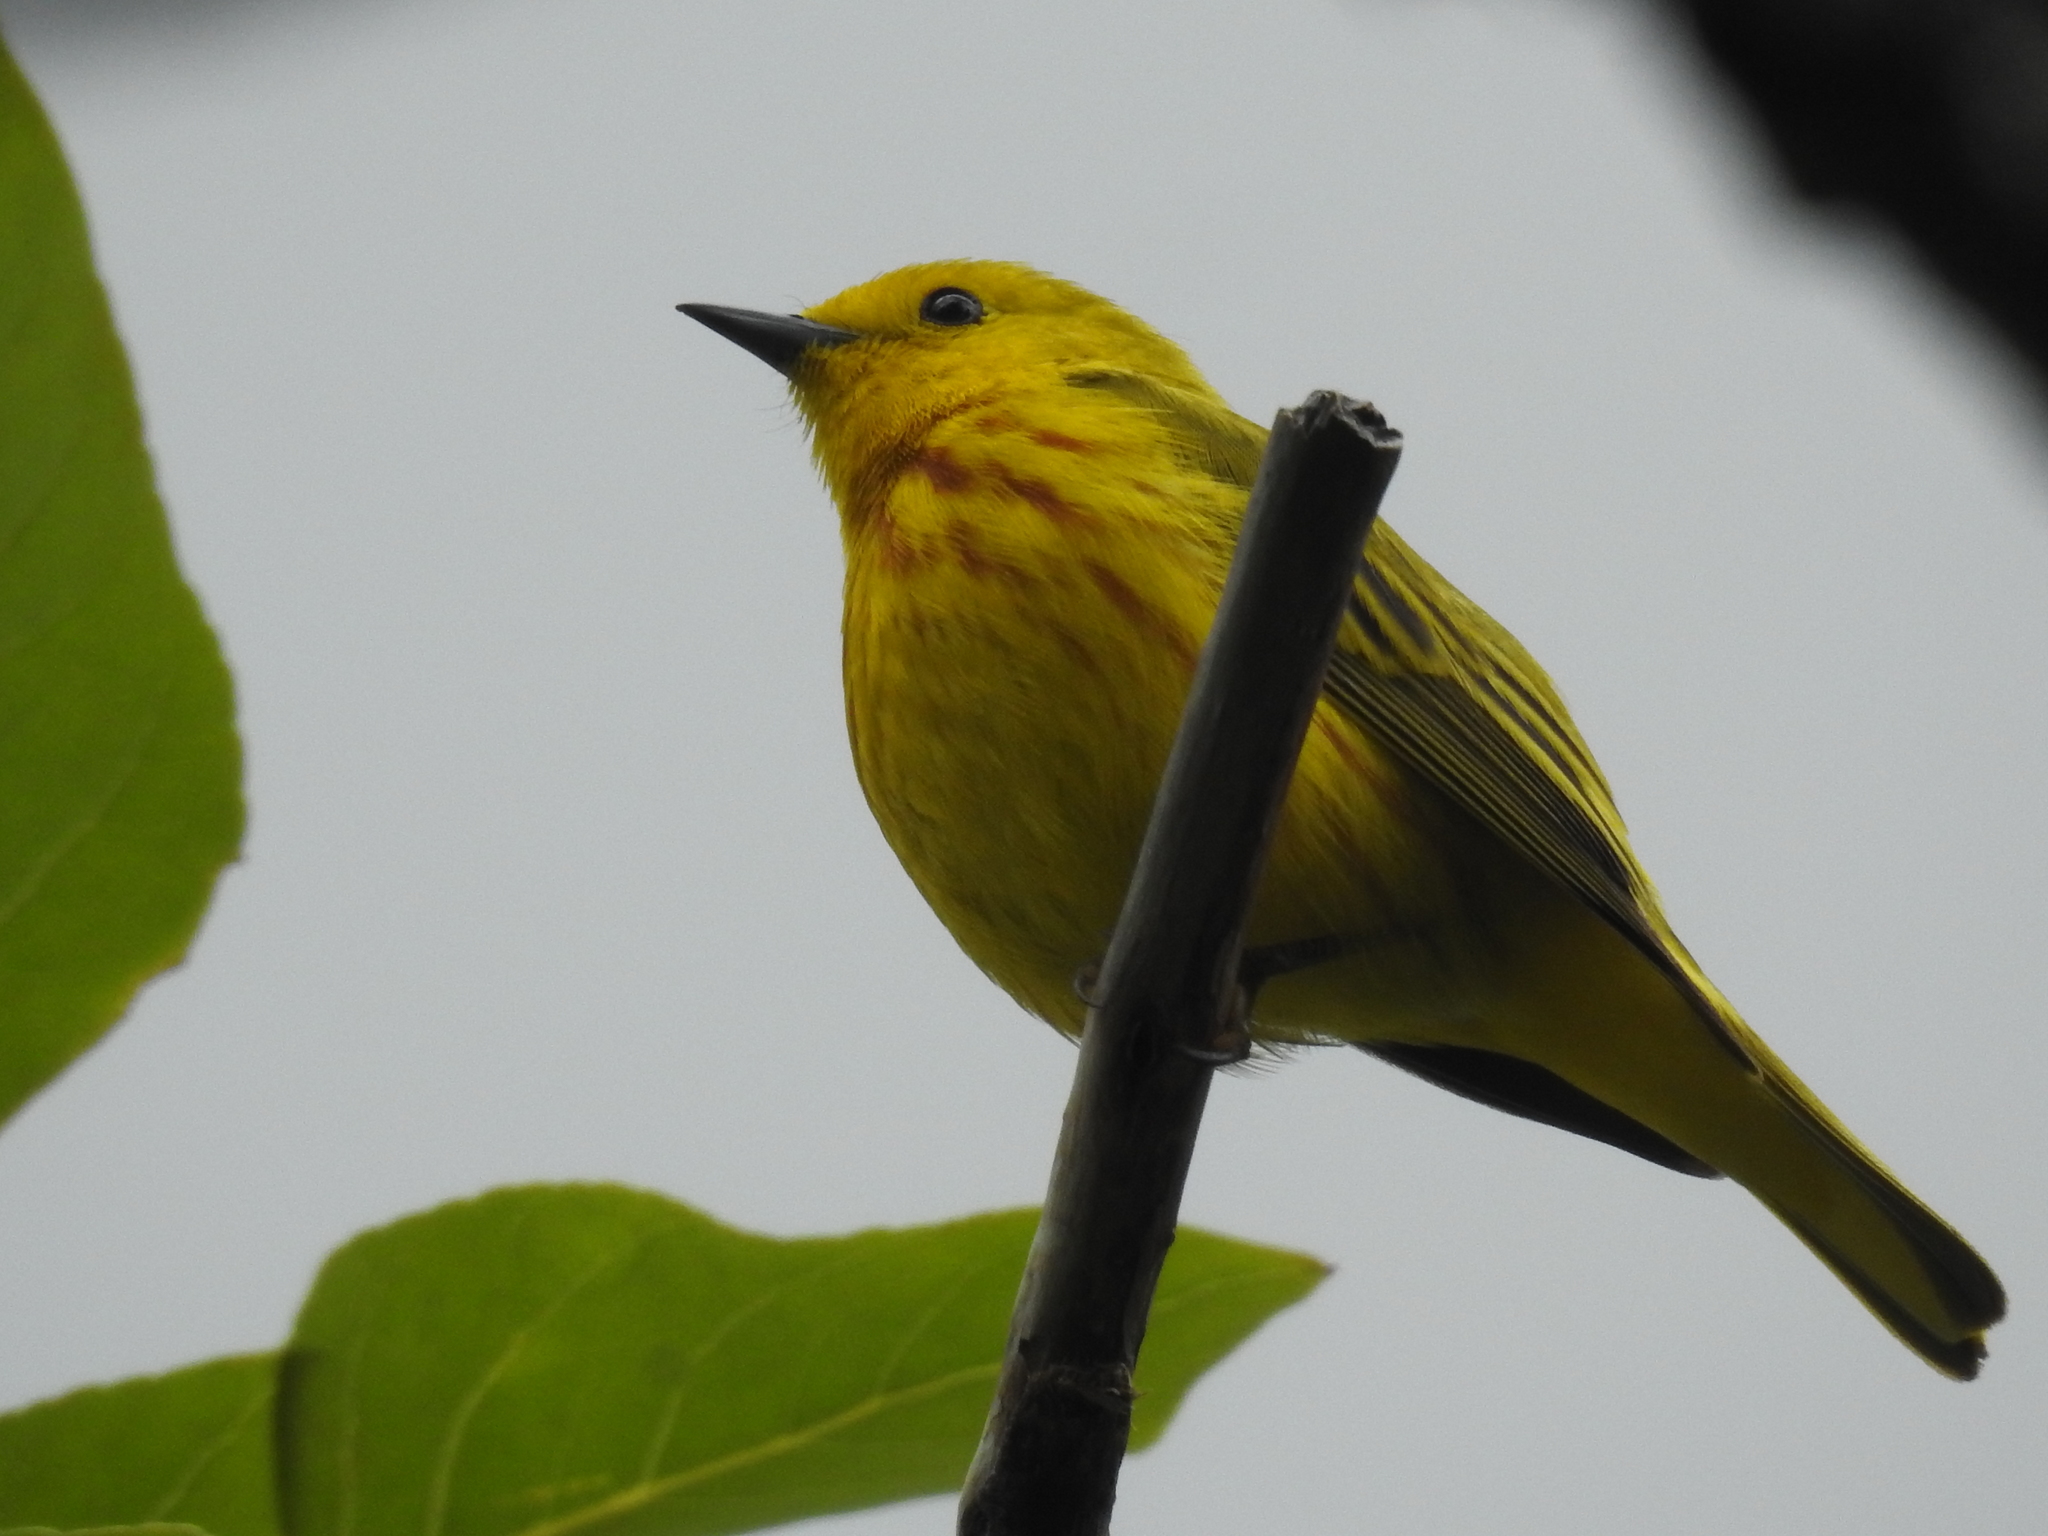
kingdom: Animalia
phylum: Chordata
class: Aves
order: Passeriformes
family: Parulidae
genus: Setophaga
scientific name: Setophaga petechia
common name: Yellow warbler
